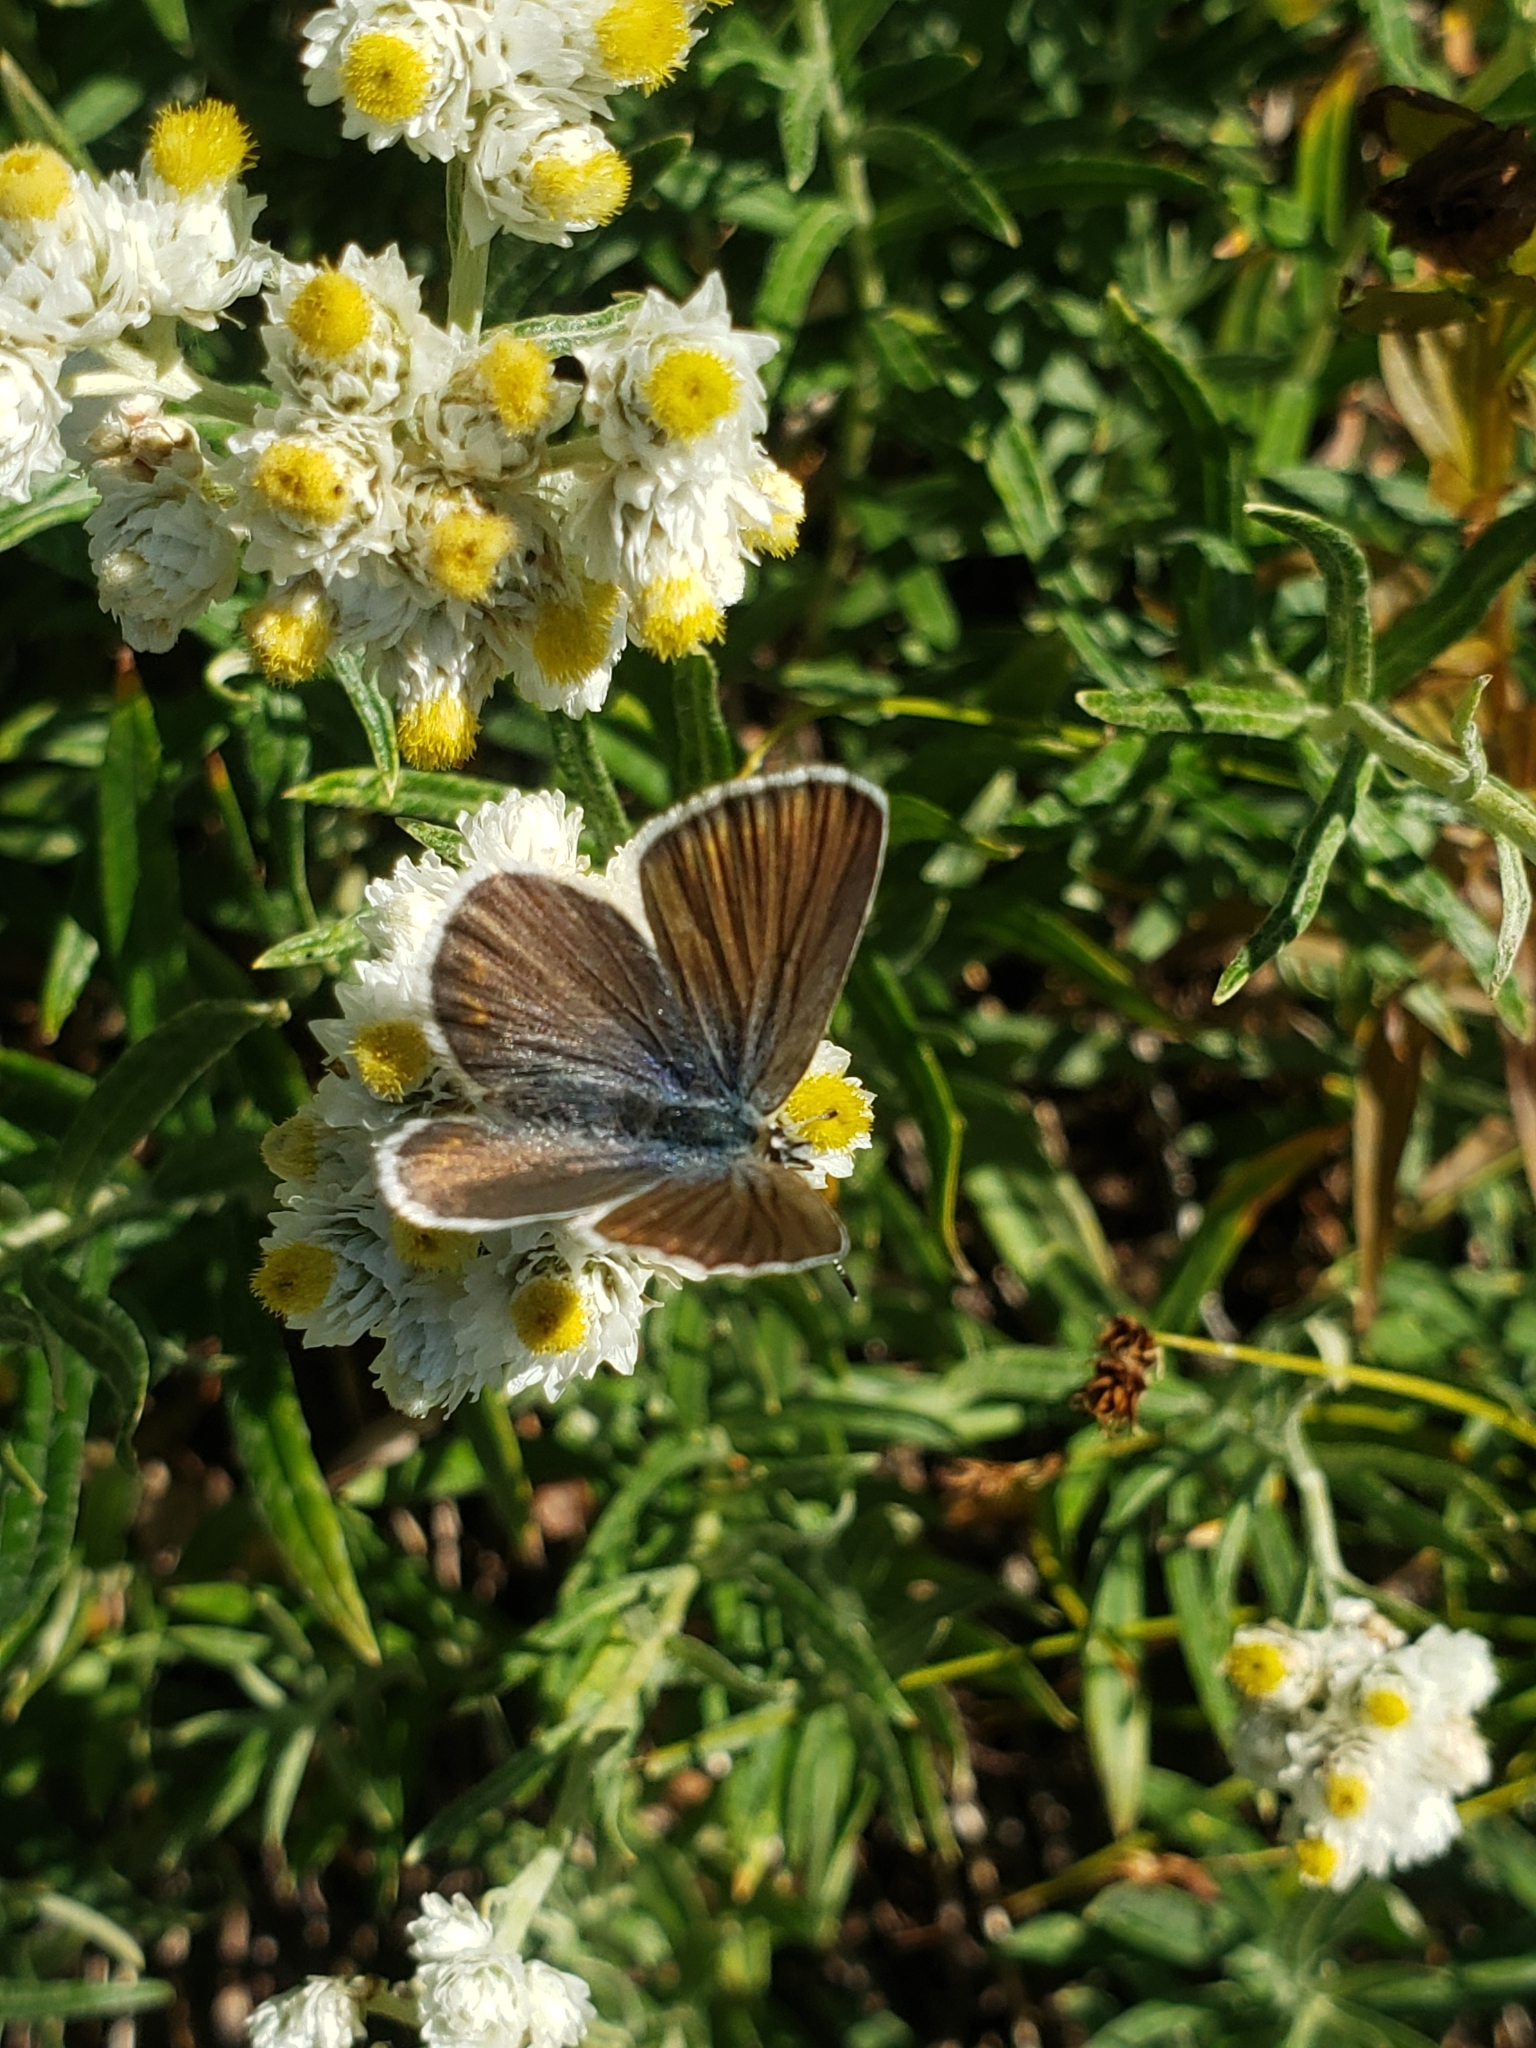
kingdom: Animalia
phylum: Arthropoda
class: Insecta
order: Lepidoptera
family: Lycaenidae
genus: Lycaeides
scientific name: Lycaeides anna
